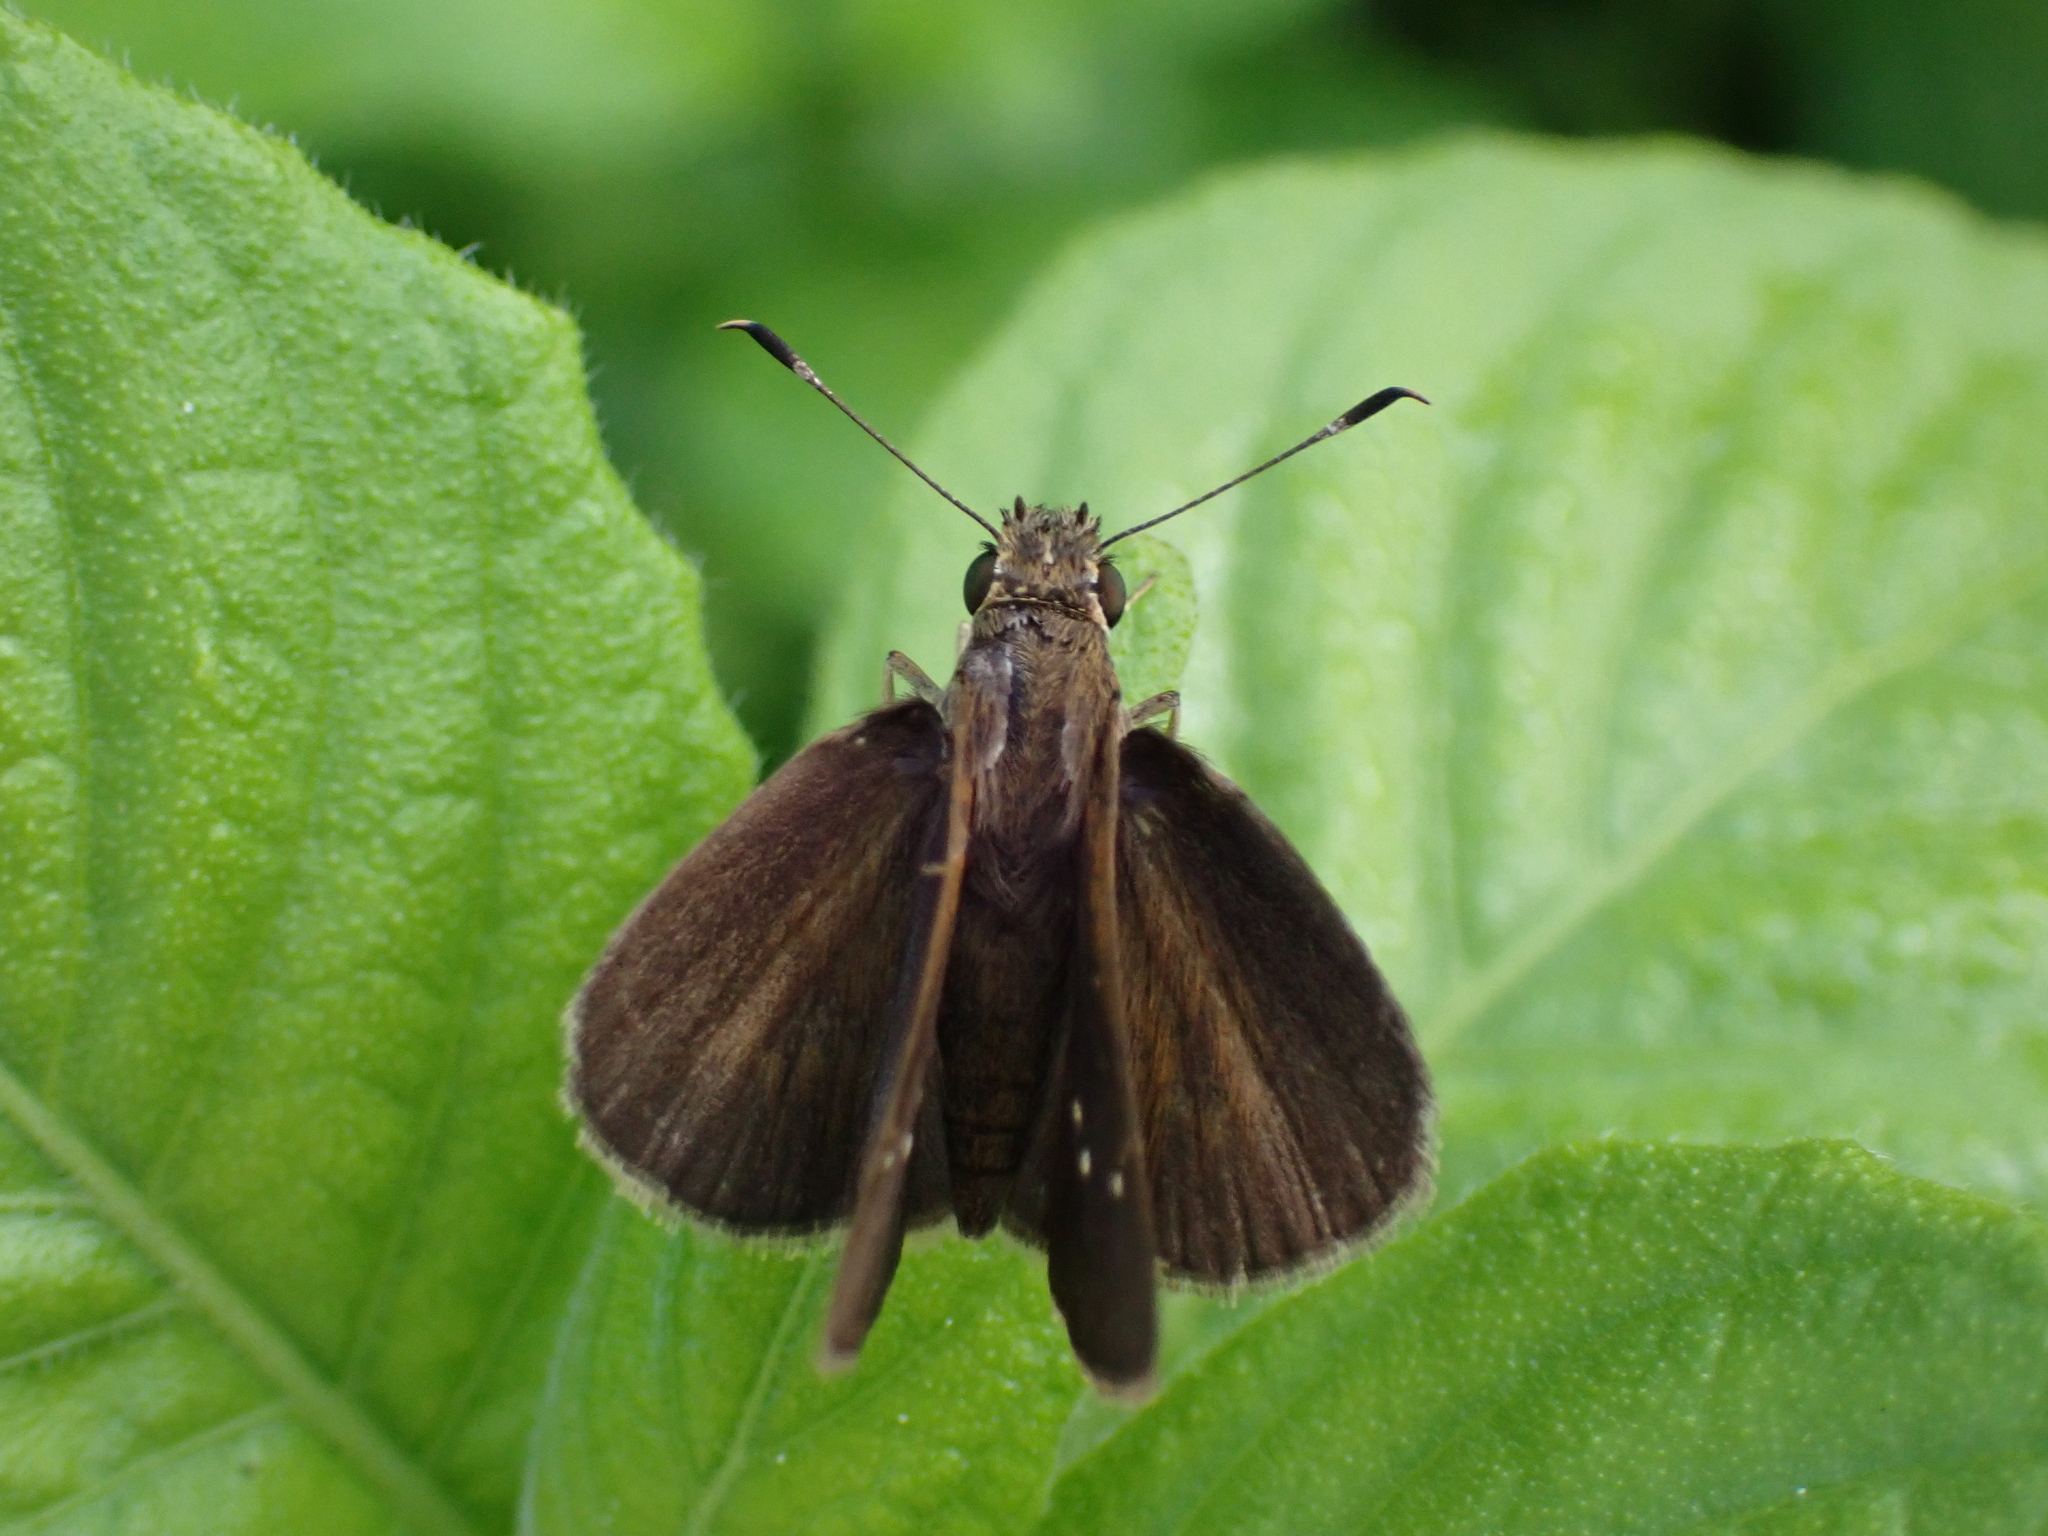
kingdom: Animalia
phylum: Arthropoda
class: Insecta
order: Lepidoptera
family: Hesperiidae
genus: Cymaenes
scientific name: Cymaenes tripunctus
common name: Dingy dotted skipper
